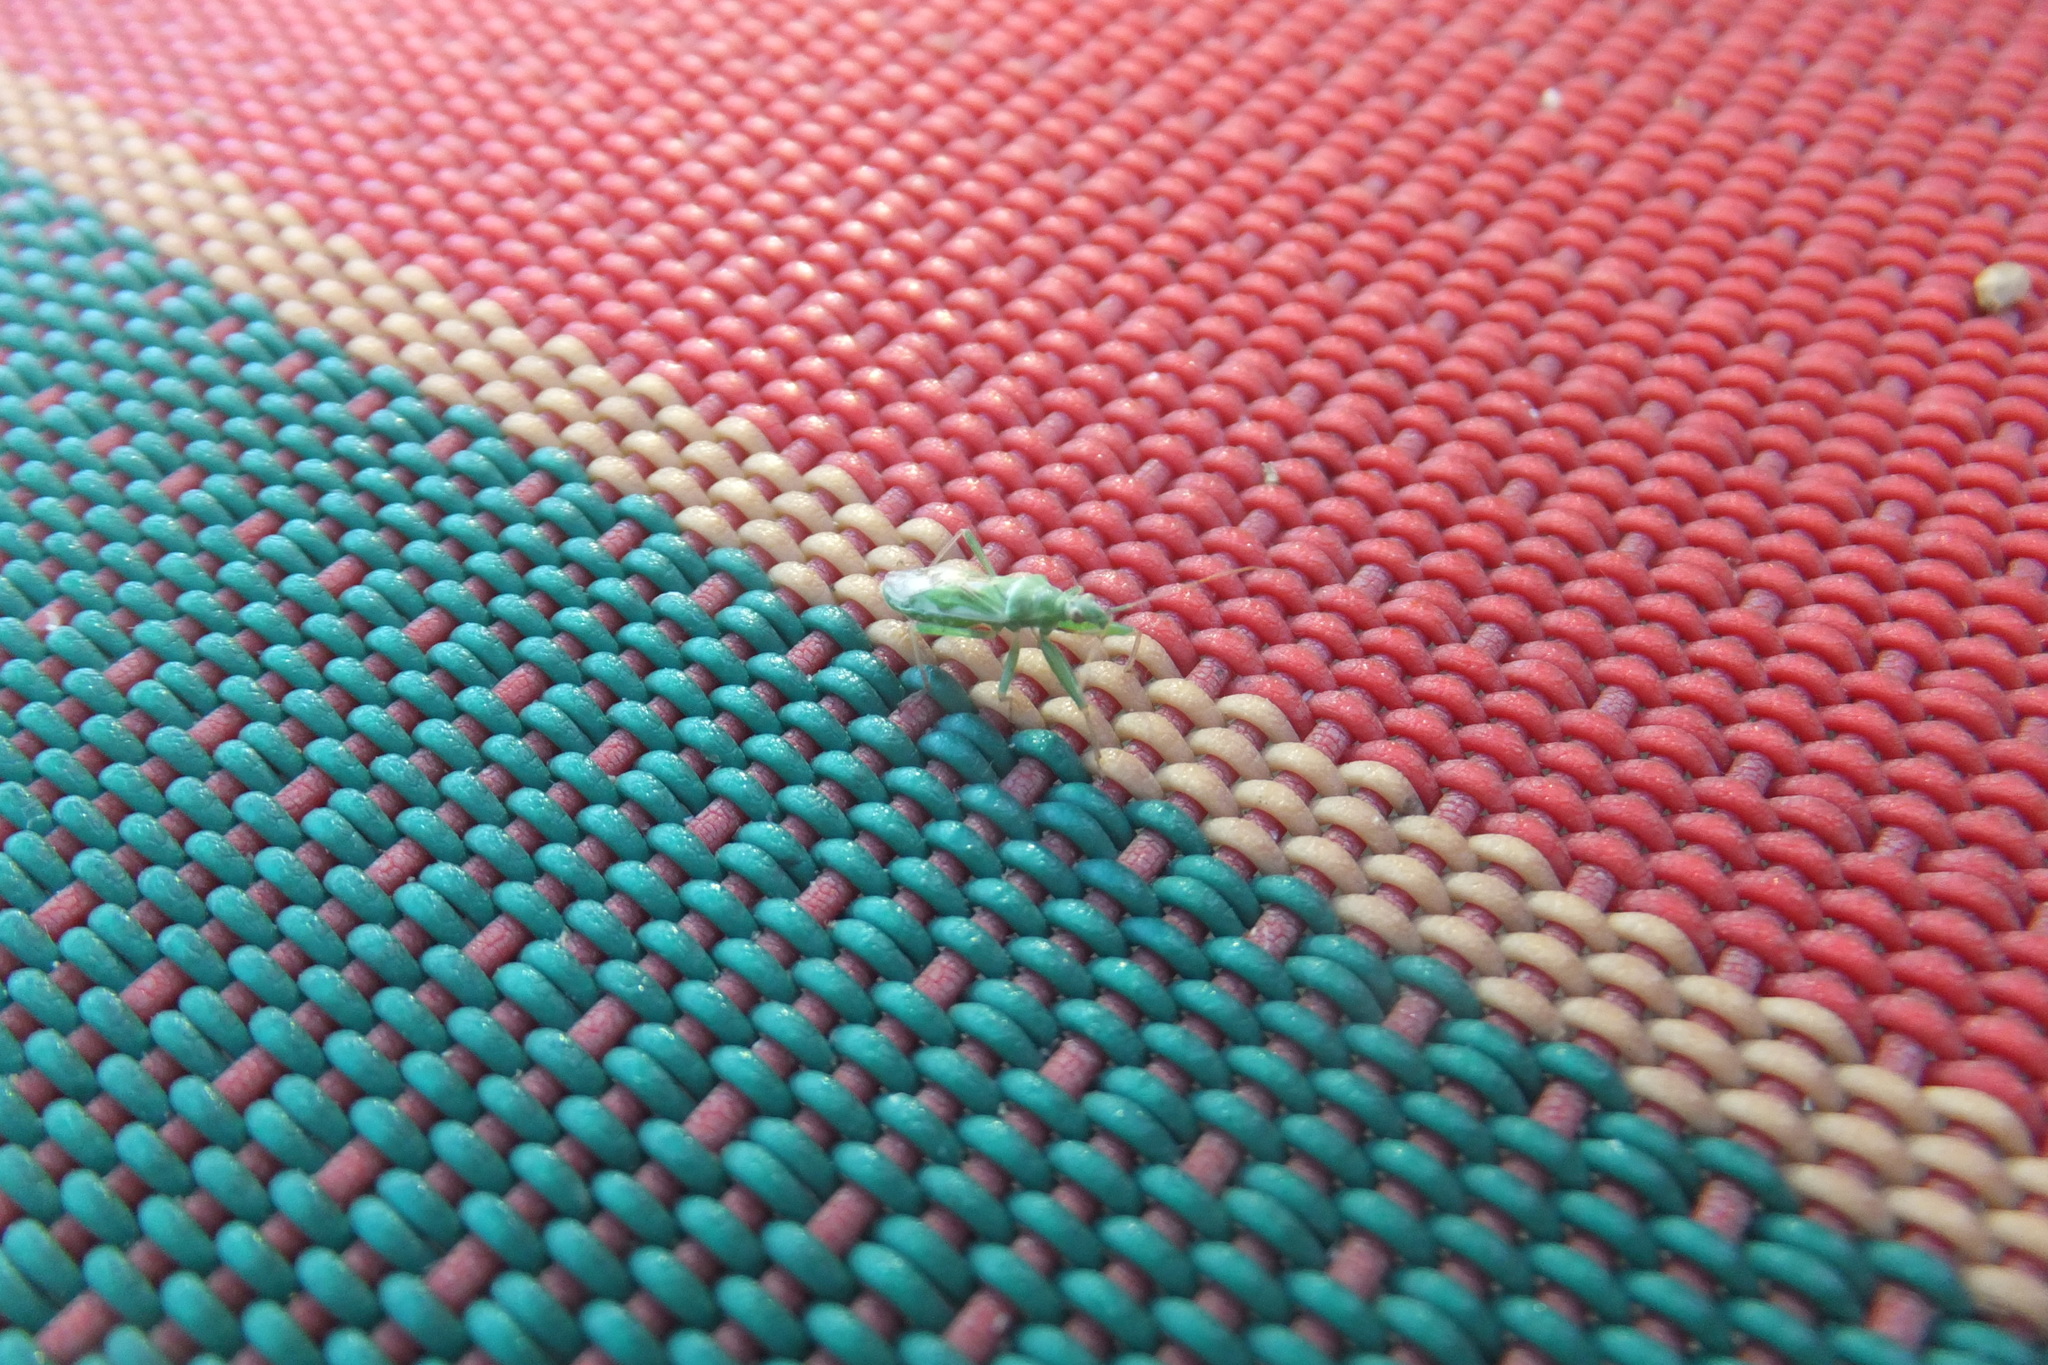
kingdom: Animalia
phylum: Arthropoda
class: Insecta
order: Hemiptera
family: Nabidae
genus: Nabis
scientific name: Nabis viridulus
